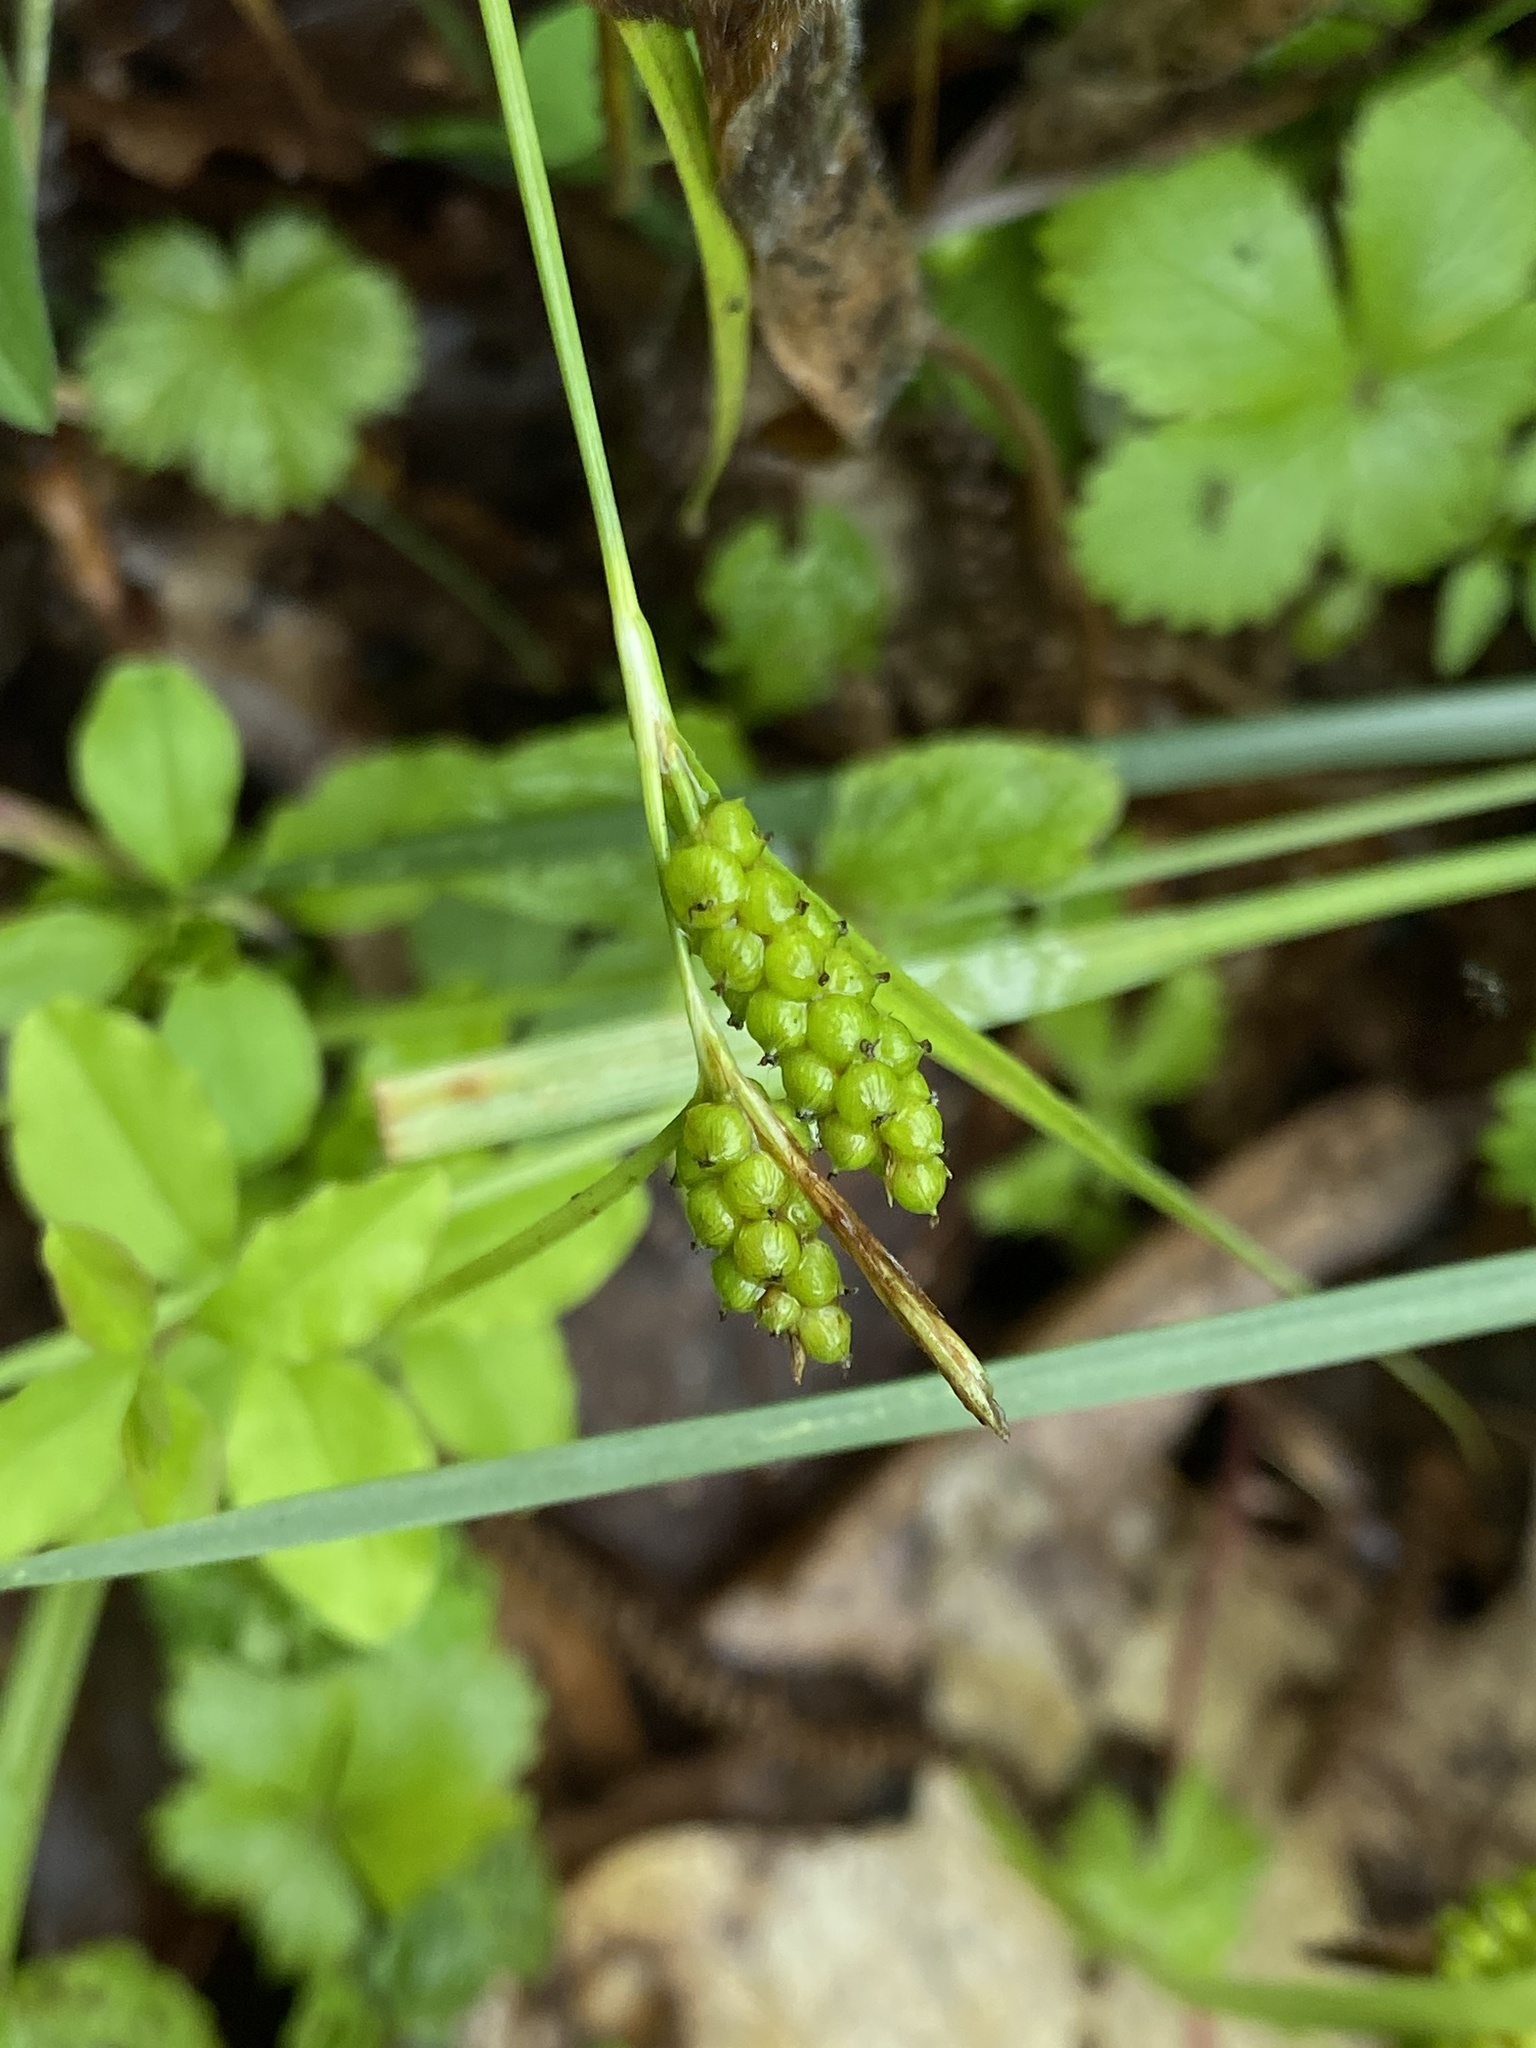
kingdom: Plantae
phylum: Tracheophyta
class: Liliopsida
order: Poales
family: Cyperaceae
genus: Carex
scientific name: Carex granularis
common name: Granular sedge
